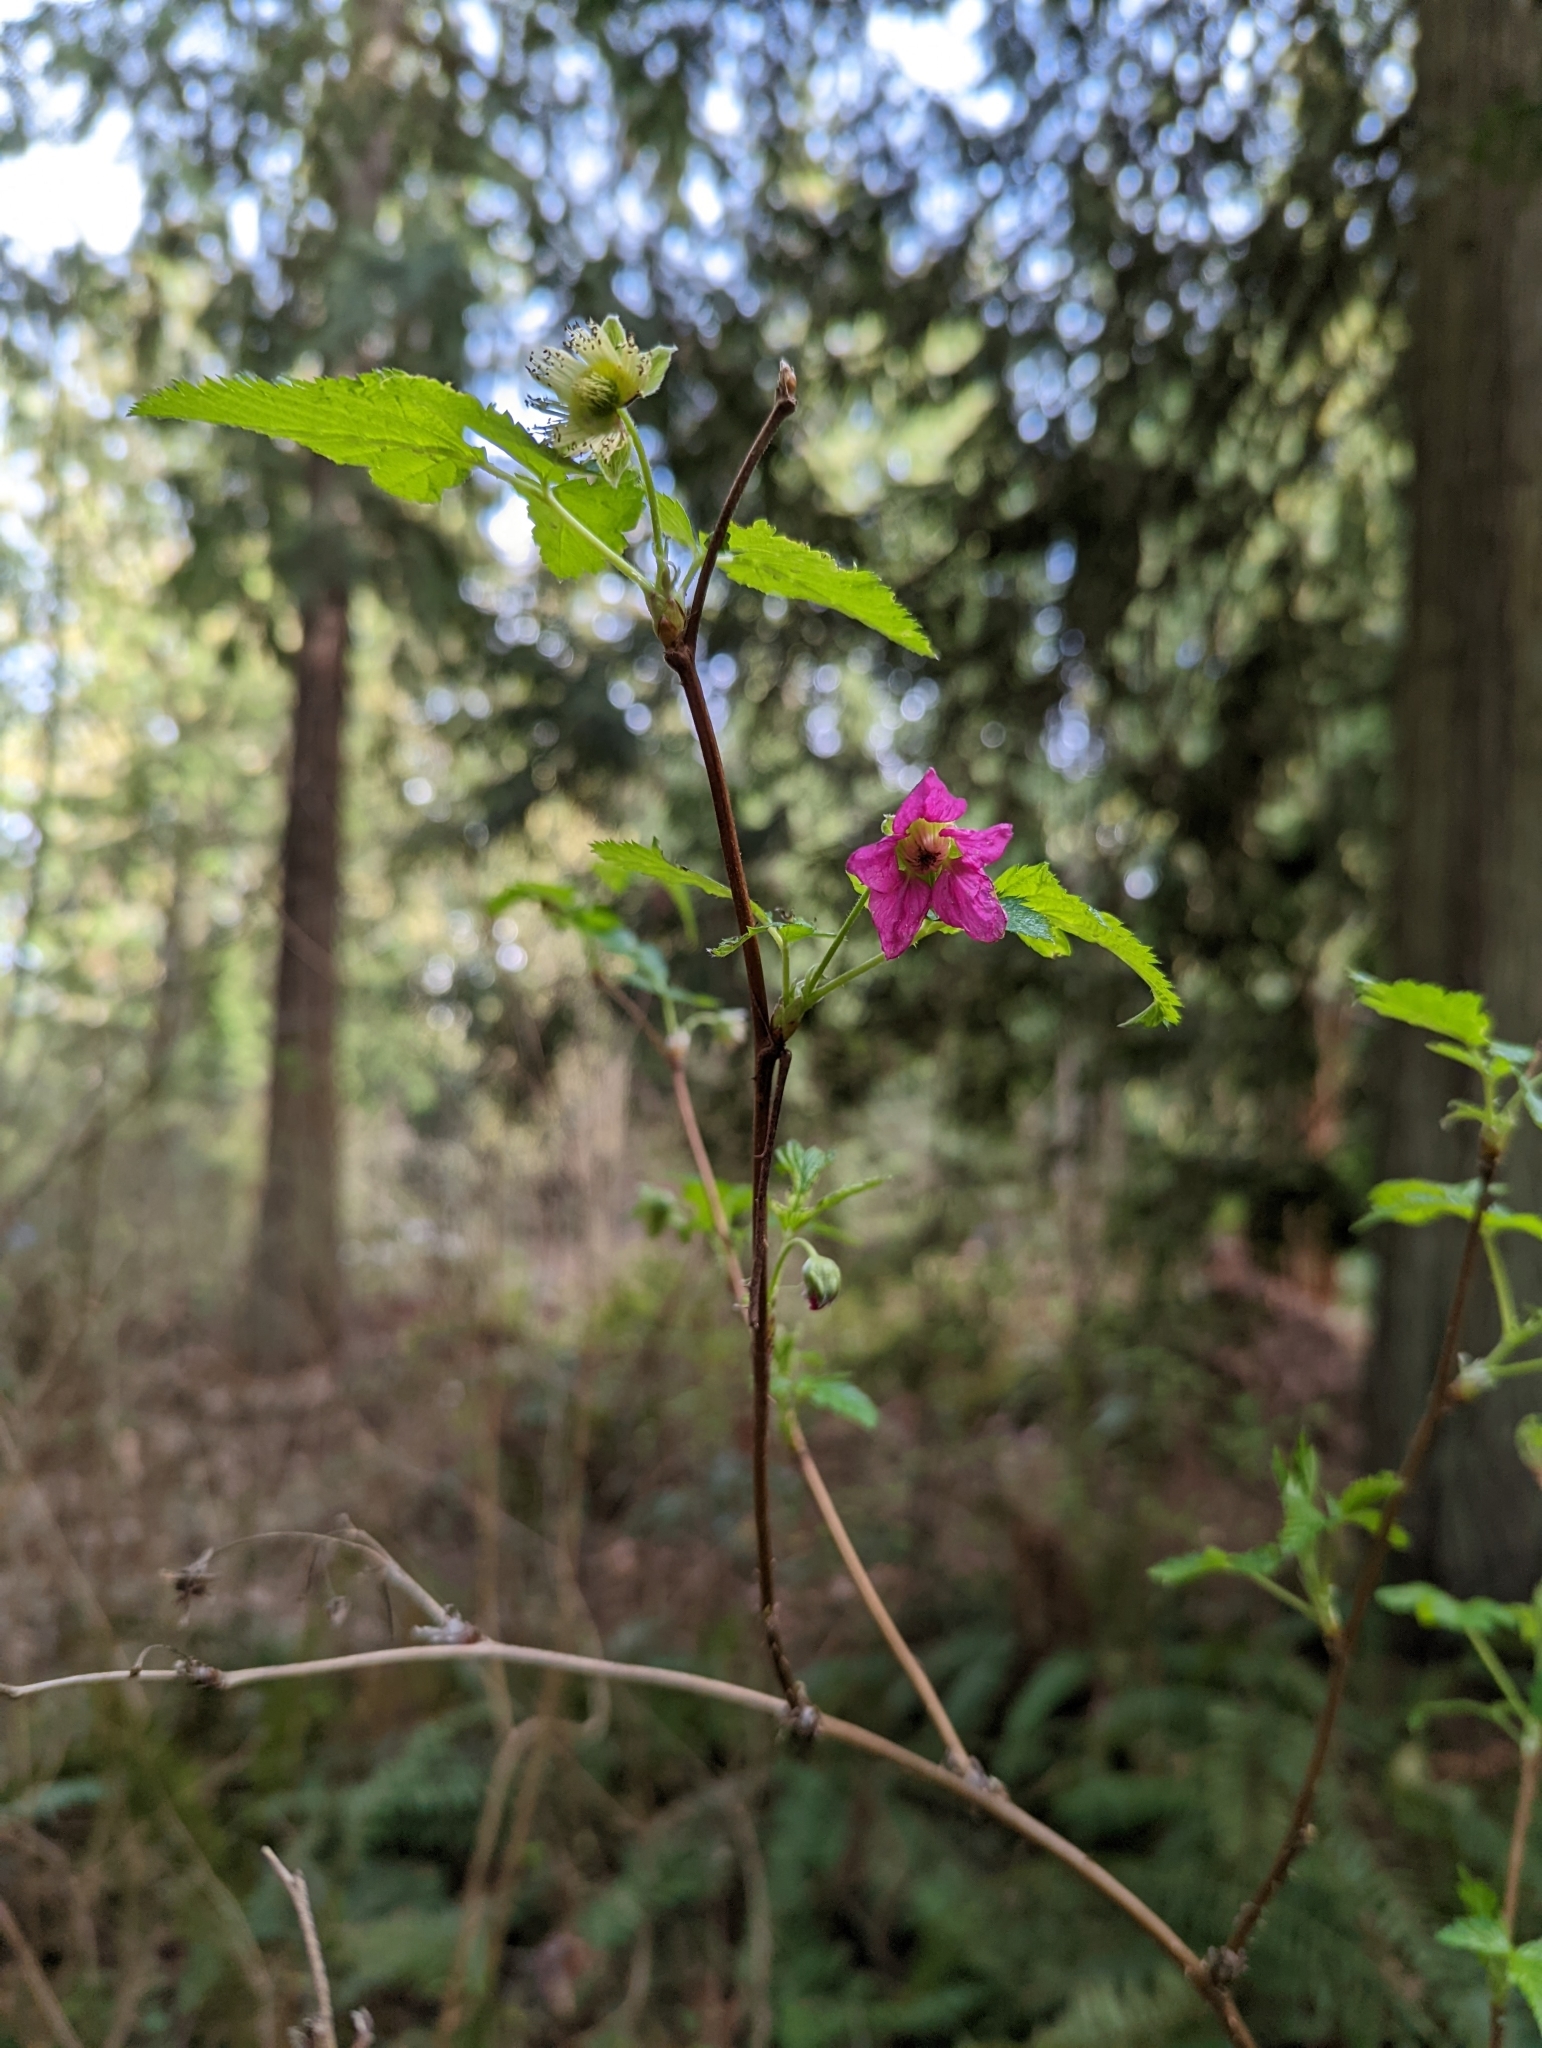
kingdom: Plantae
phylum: Tracheophyta
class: Magnoliopsida
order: Rosales
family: Rosaceae
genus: Rubus
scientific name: Rubus spectabilis
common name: Salmonberry
